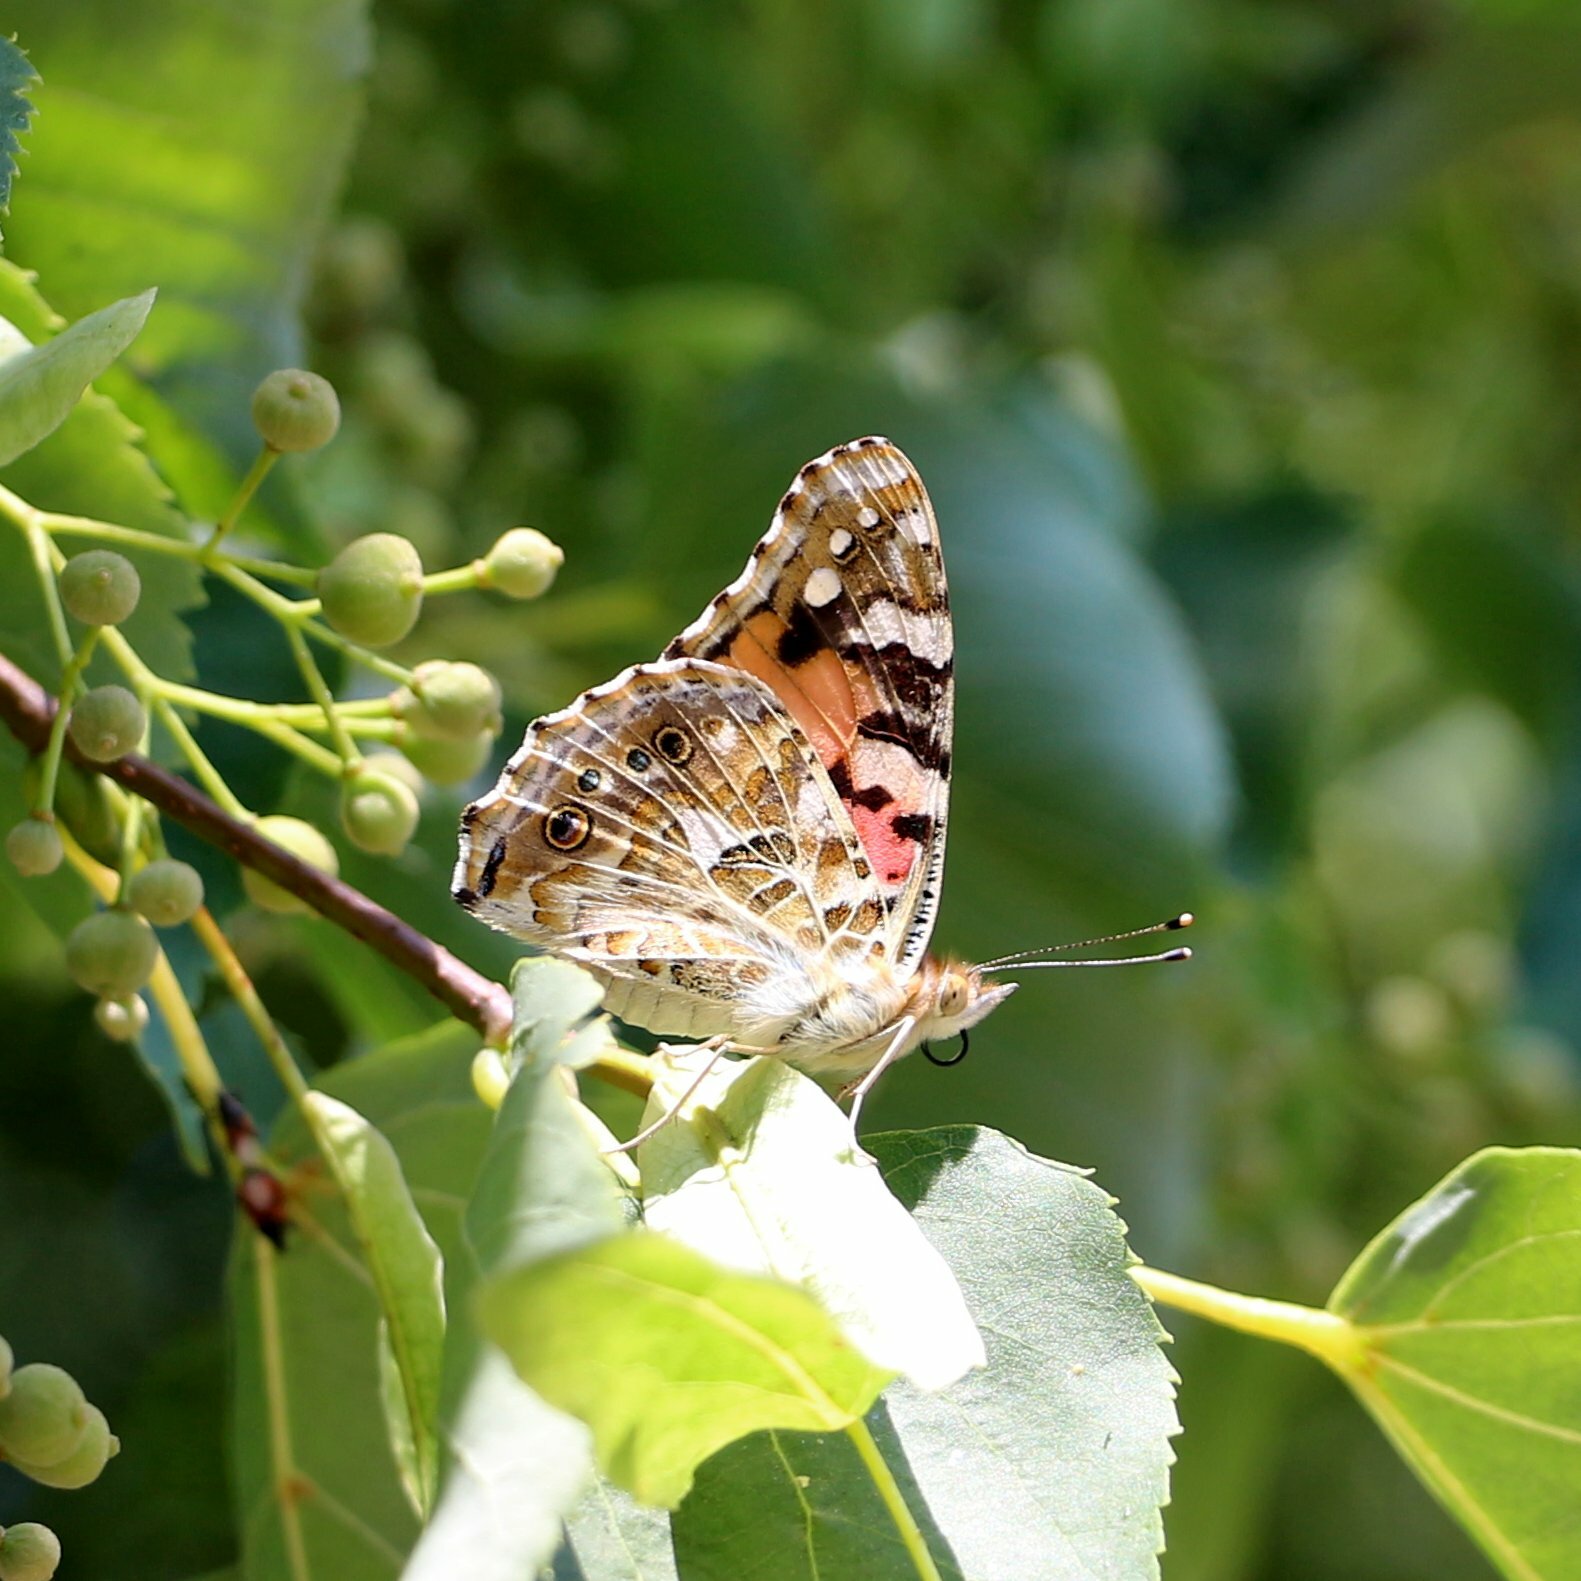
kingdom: Animalia
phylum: Arthropoda
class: Insecta
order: Lepidoptera
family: Nymphalidae
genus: Vanessa
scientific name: Vanessa cardui
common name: Painted lady
